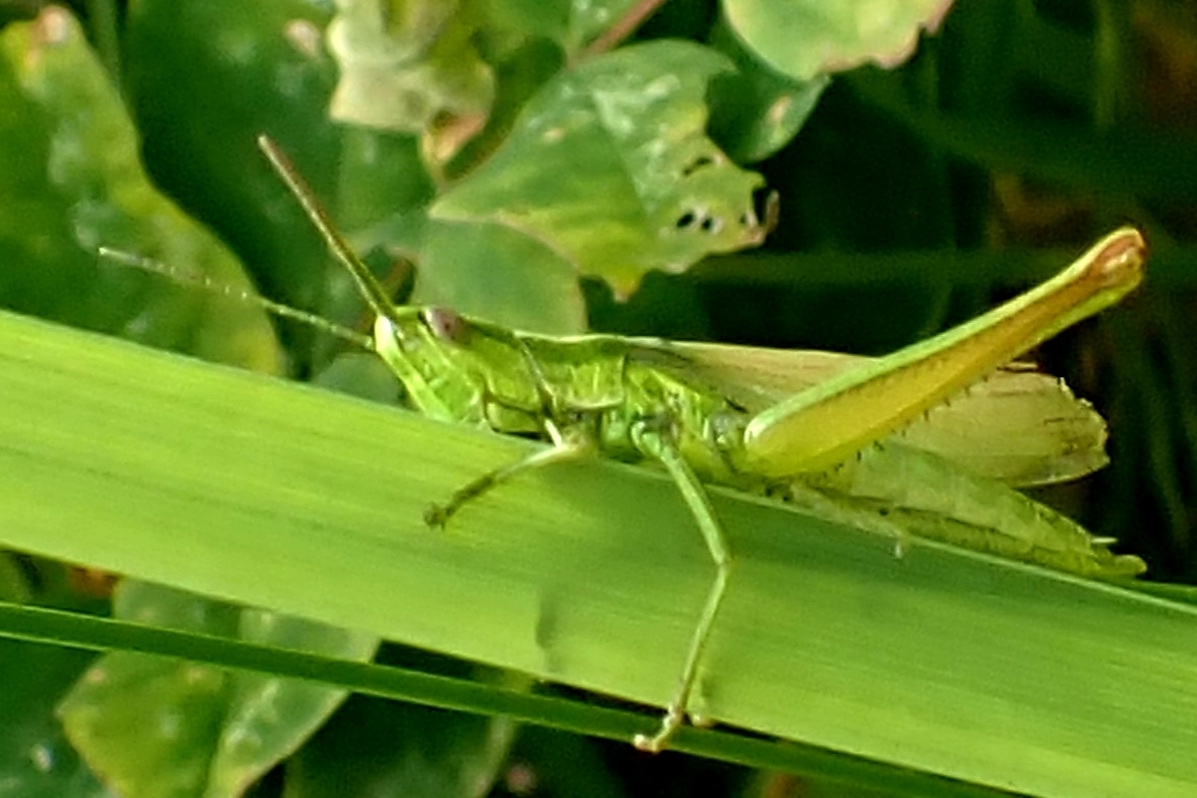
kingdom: Animalia
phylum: Arthropoda
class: Insecta
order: Orthoptera
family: Acrididae
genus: Euthystira
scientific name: Euthystira brachyptera
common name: Small gold grasshopper
